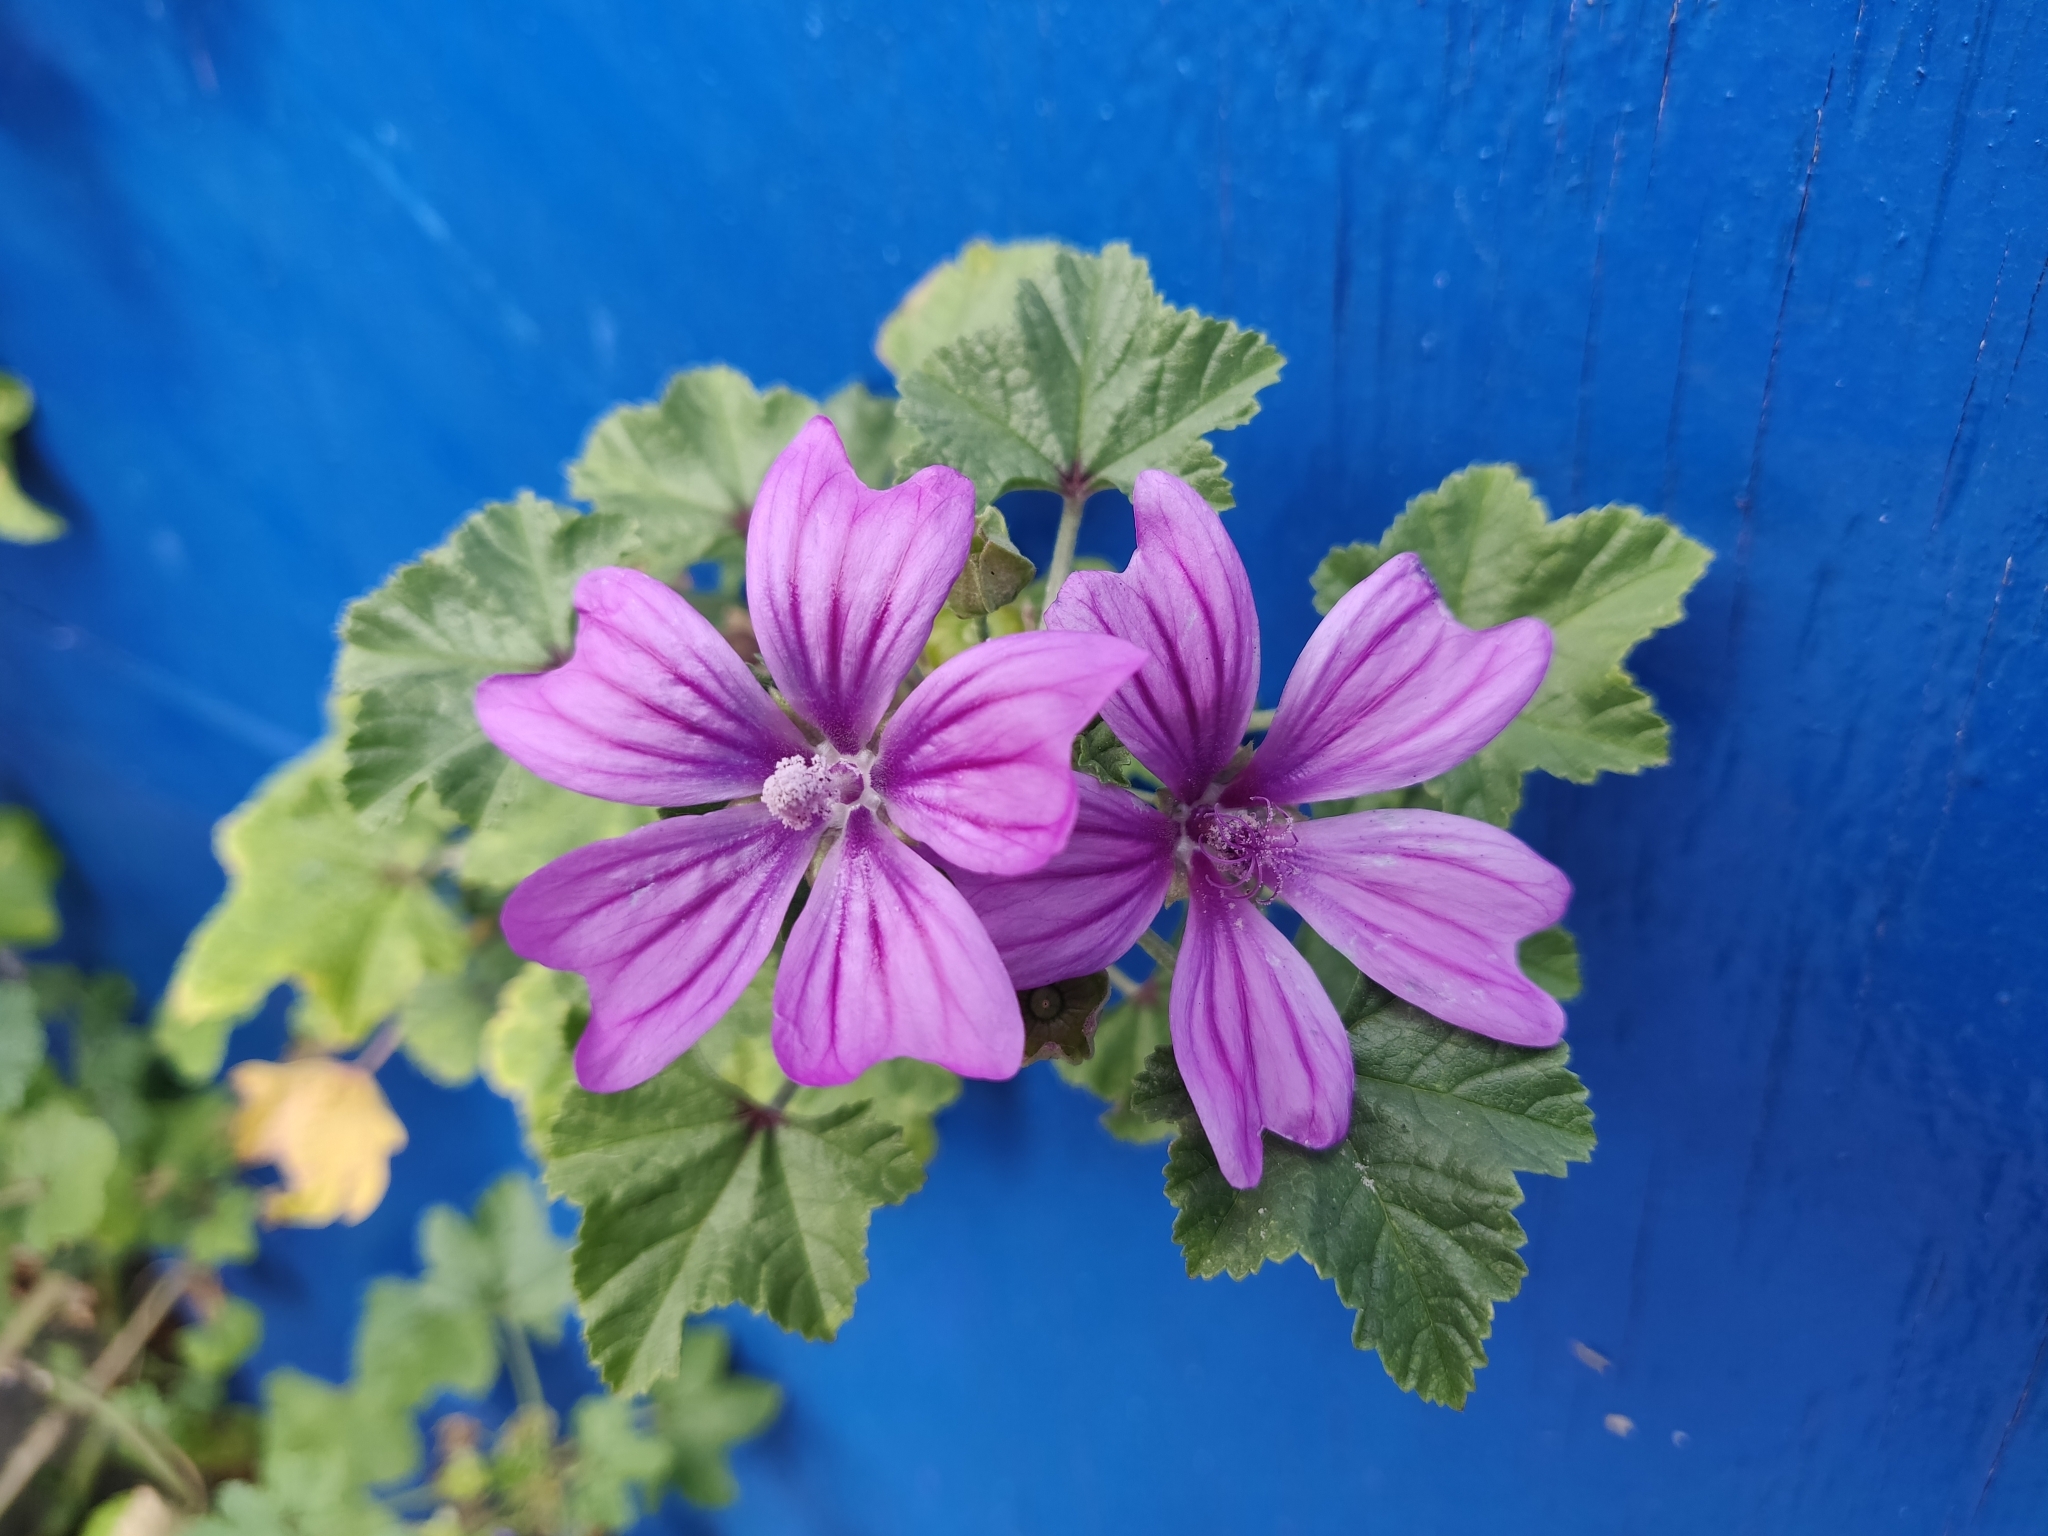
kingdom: Plantae
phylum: Tracheophyta
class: Magnoliopsida
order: Malvales
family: Malvaceae
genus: Malva
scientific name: Malva sylvestris
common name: Common mallow
